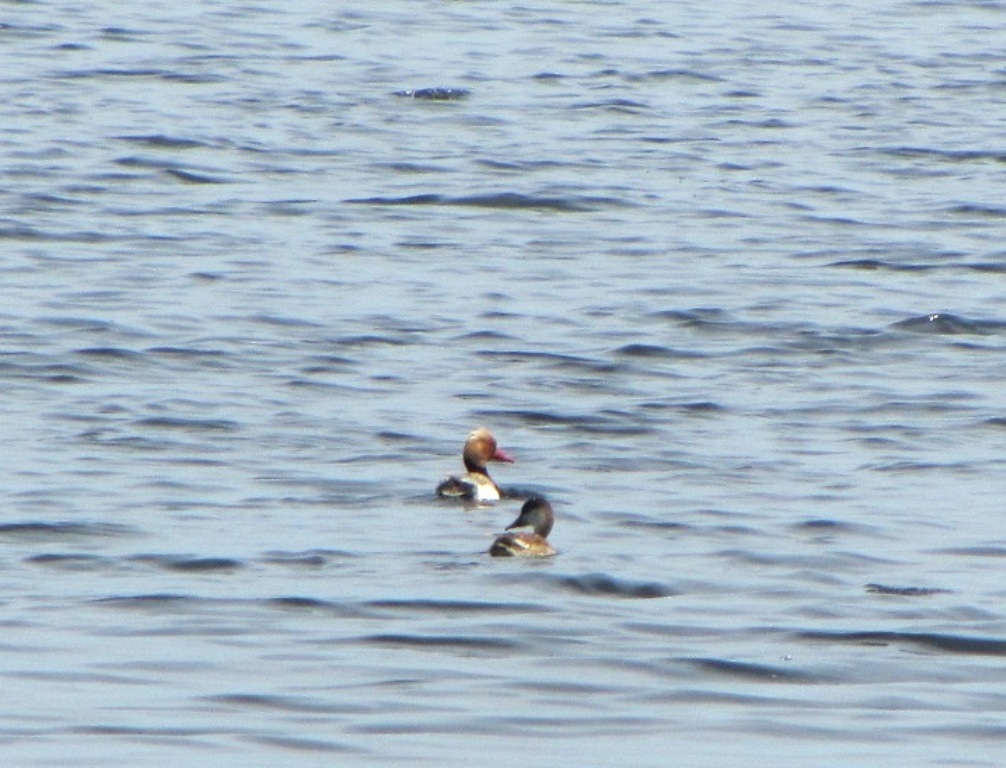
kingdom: Animalia
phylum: Chordata
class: Aves
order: Anseriformes
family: Anatidae
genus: Netta
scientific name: Netta rufina
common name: Red-crested pochard
